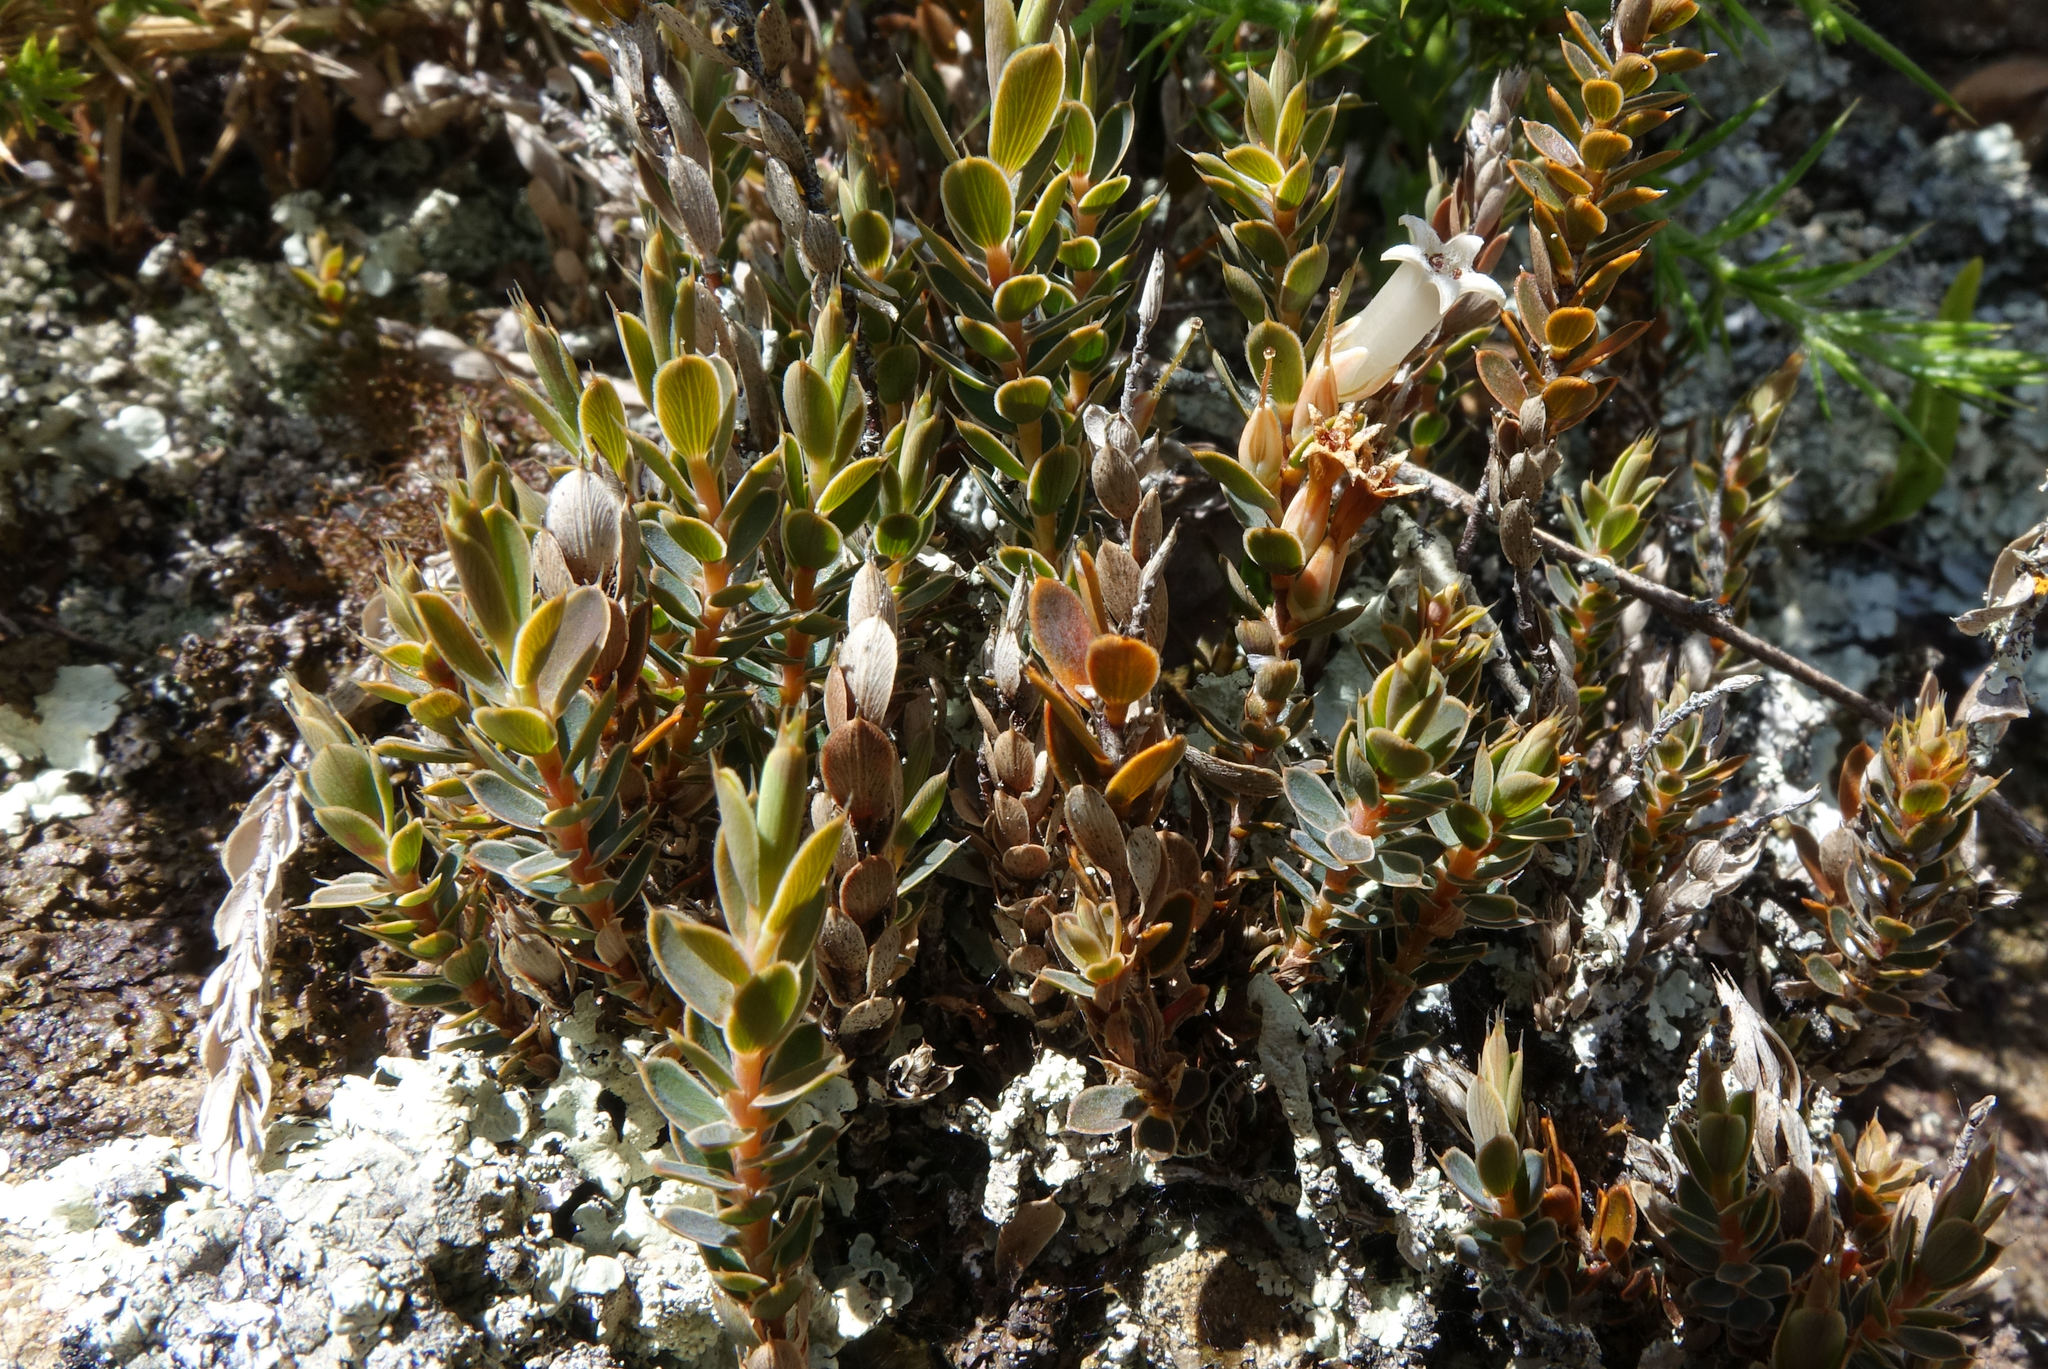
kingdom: Plantae
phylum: Tracheophyta
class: Magnoliopsida
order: Ericales
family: Ericaceae
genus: Styphelia
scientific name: Styphelia nesophila
